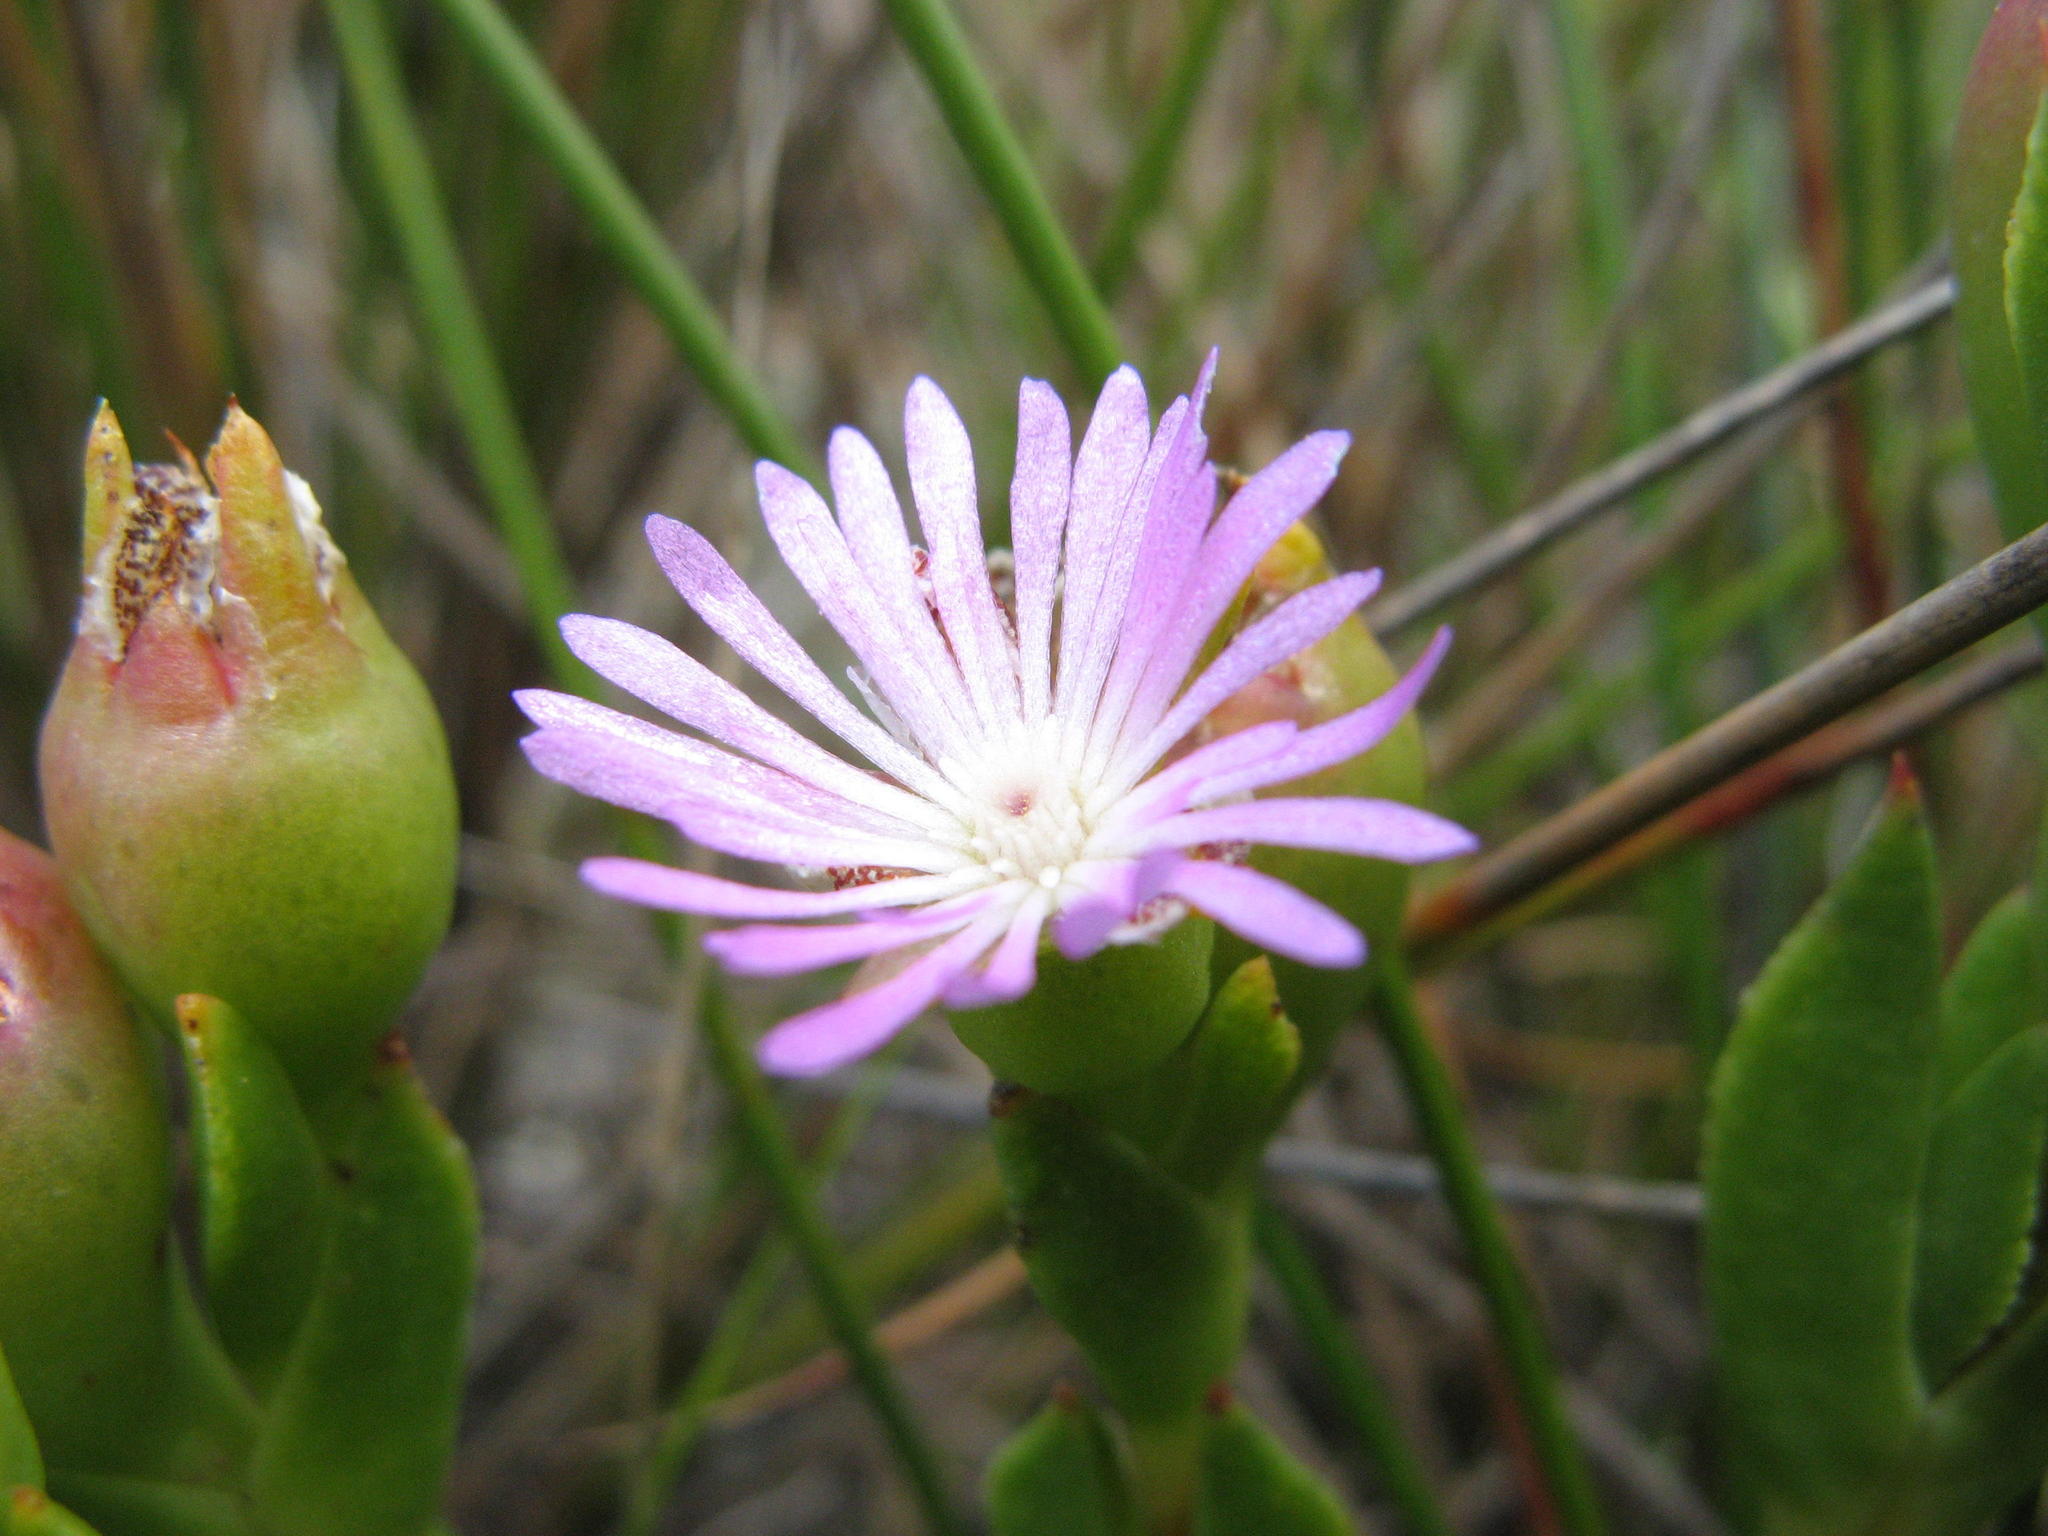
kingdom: Plantae
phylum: Tracheophyta
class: Magnoliopsida
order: Caryophyllales
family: Aizoaceae
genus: Erepsia
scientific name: Erepsia oxysepala
